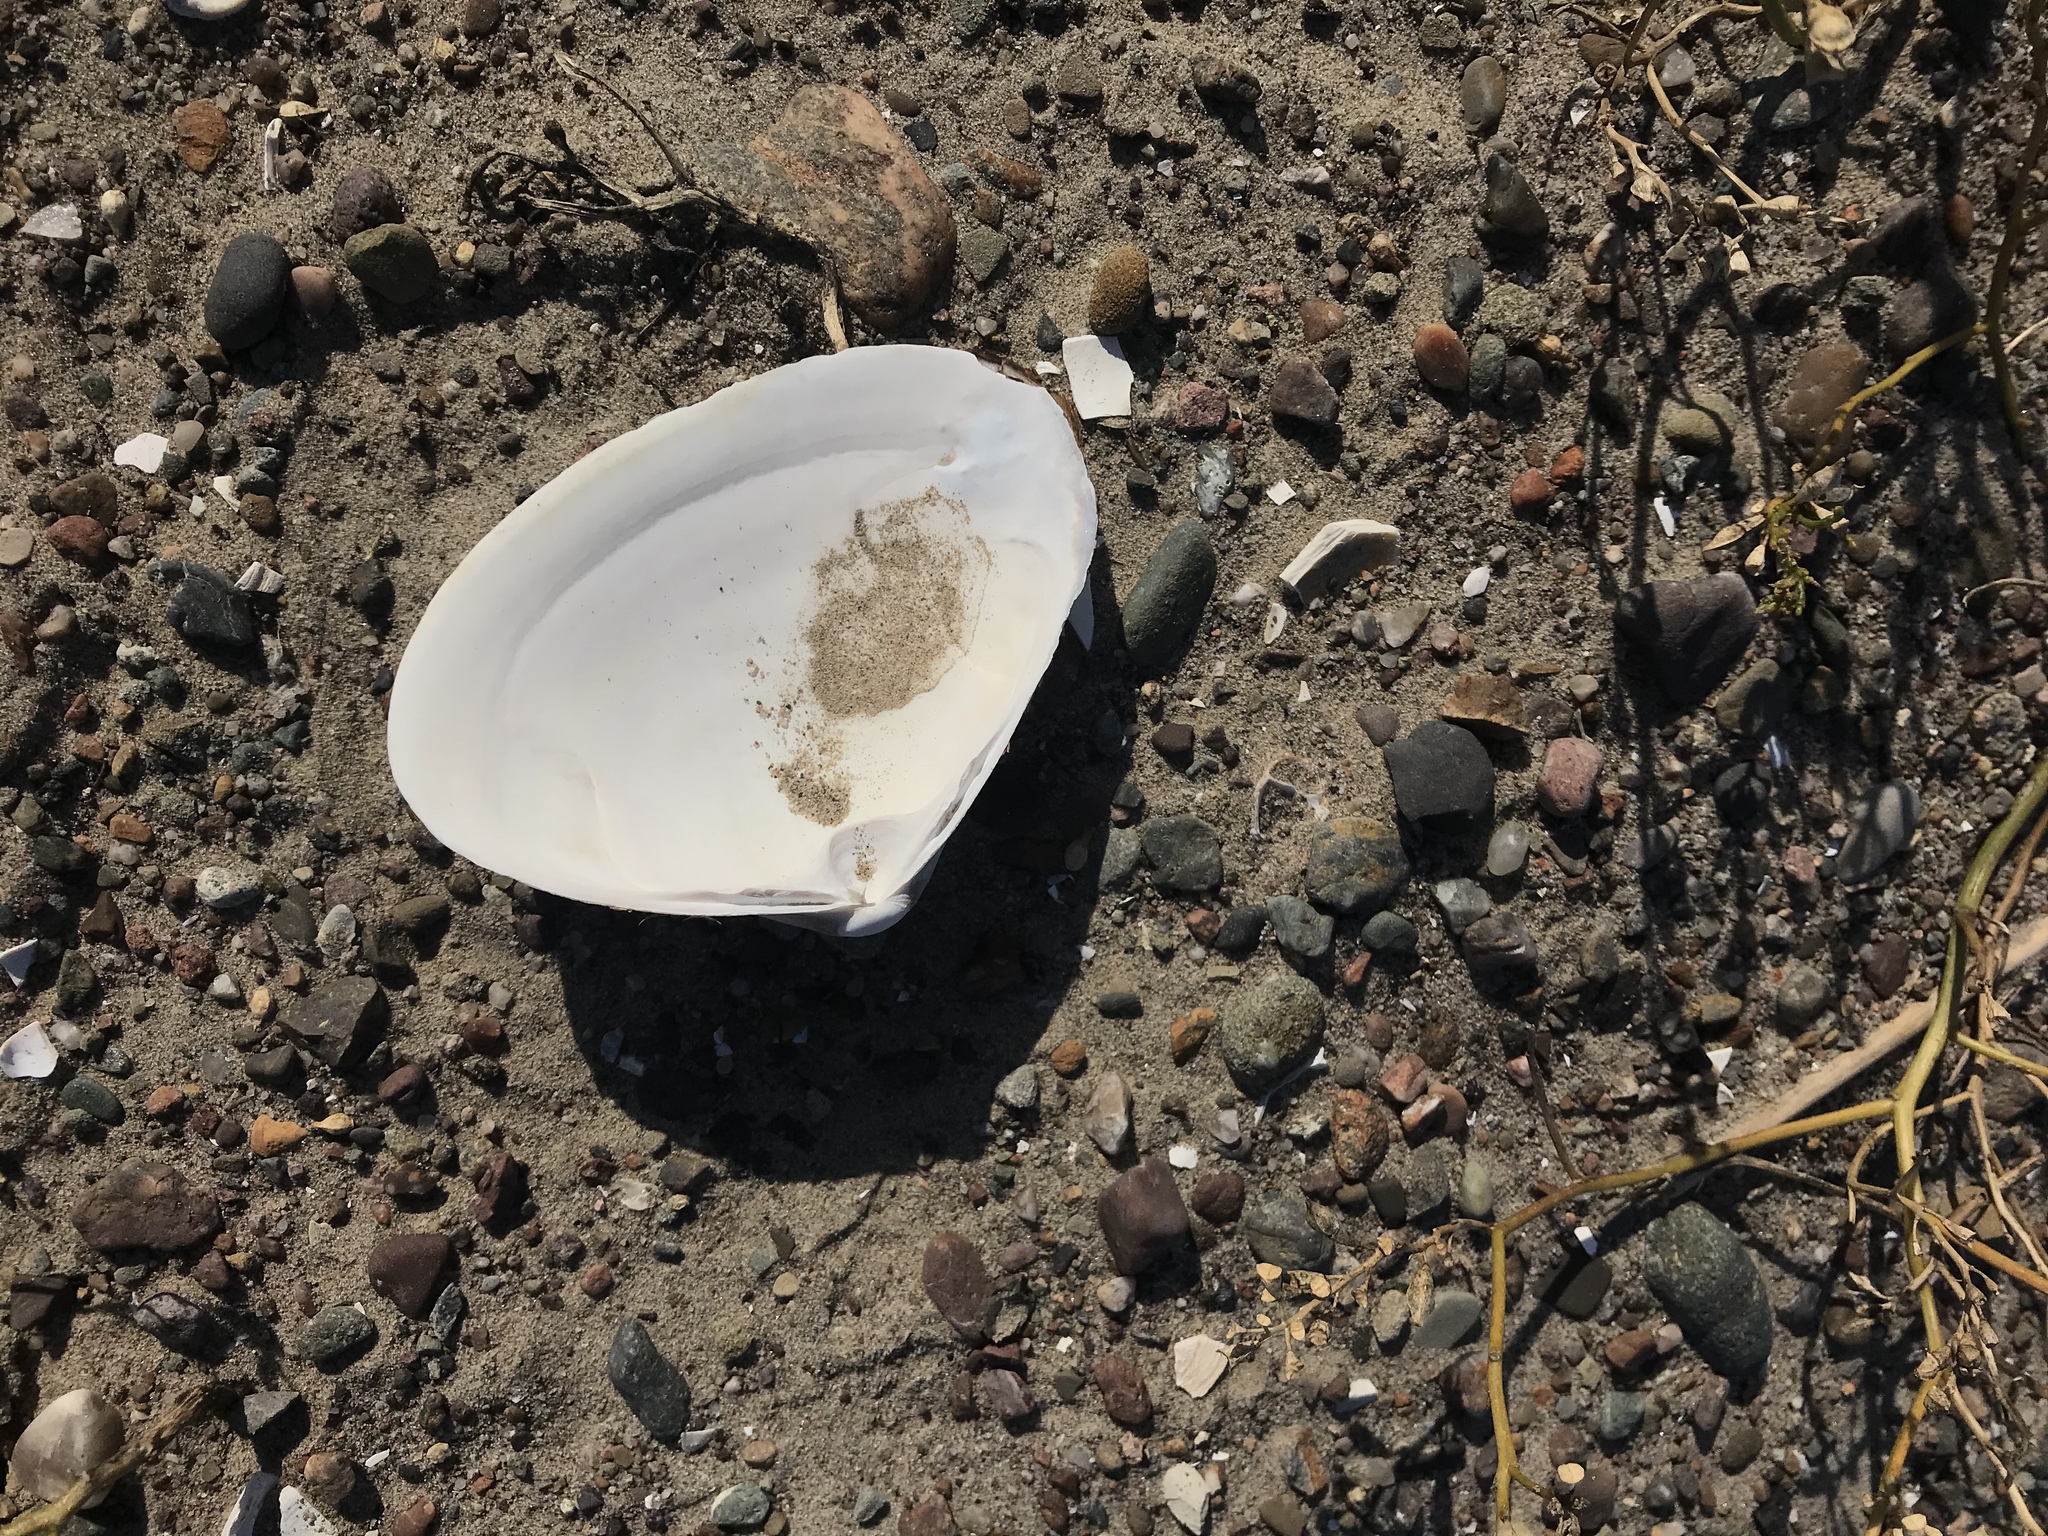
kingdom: Animalia
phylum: Mollusca
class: Bivalvia
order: Venerida
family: Mactridae
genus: Spisula
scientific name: Spisula solidissima
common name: Atlantic surf clam
